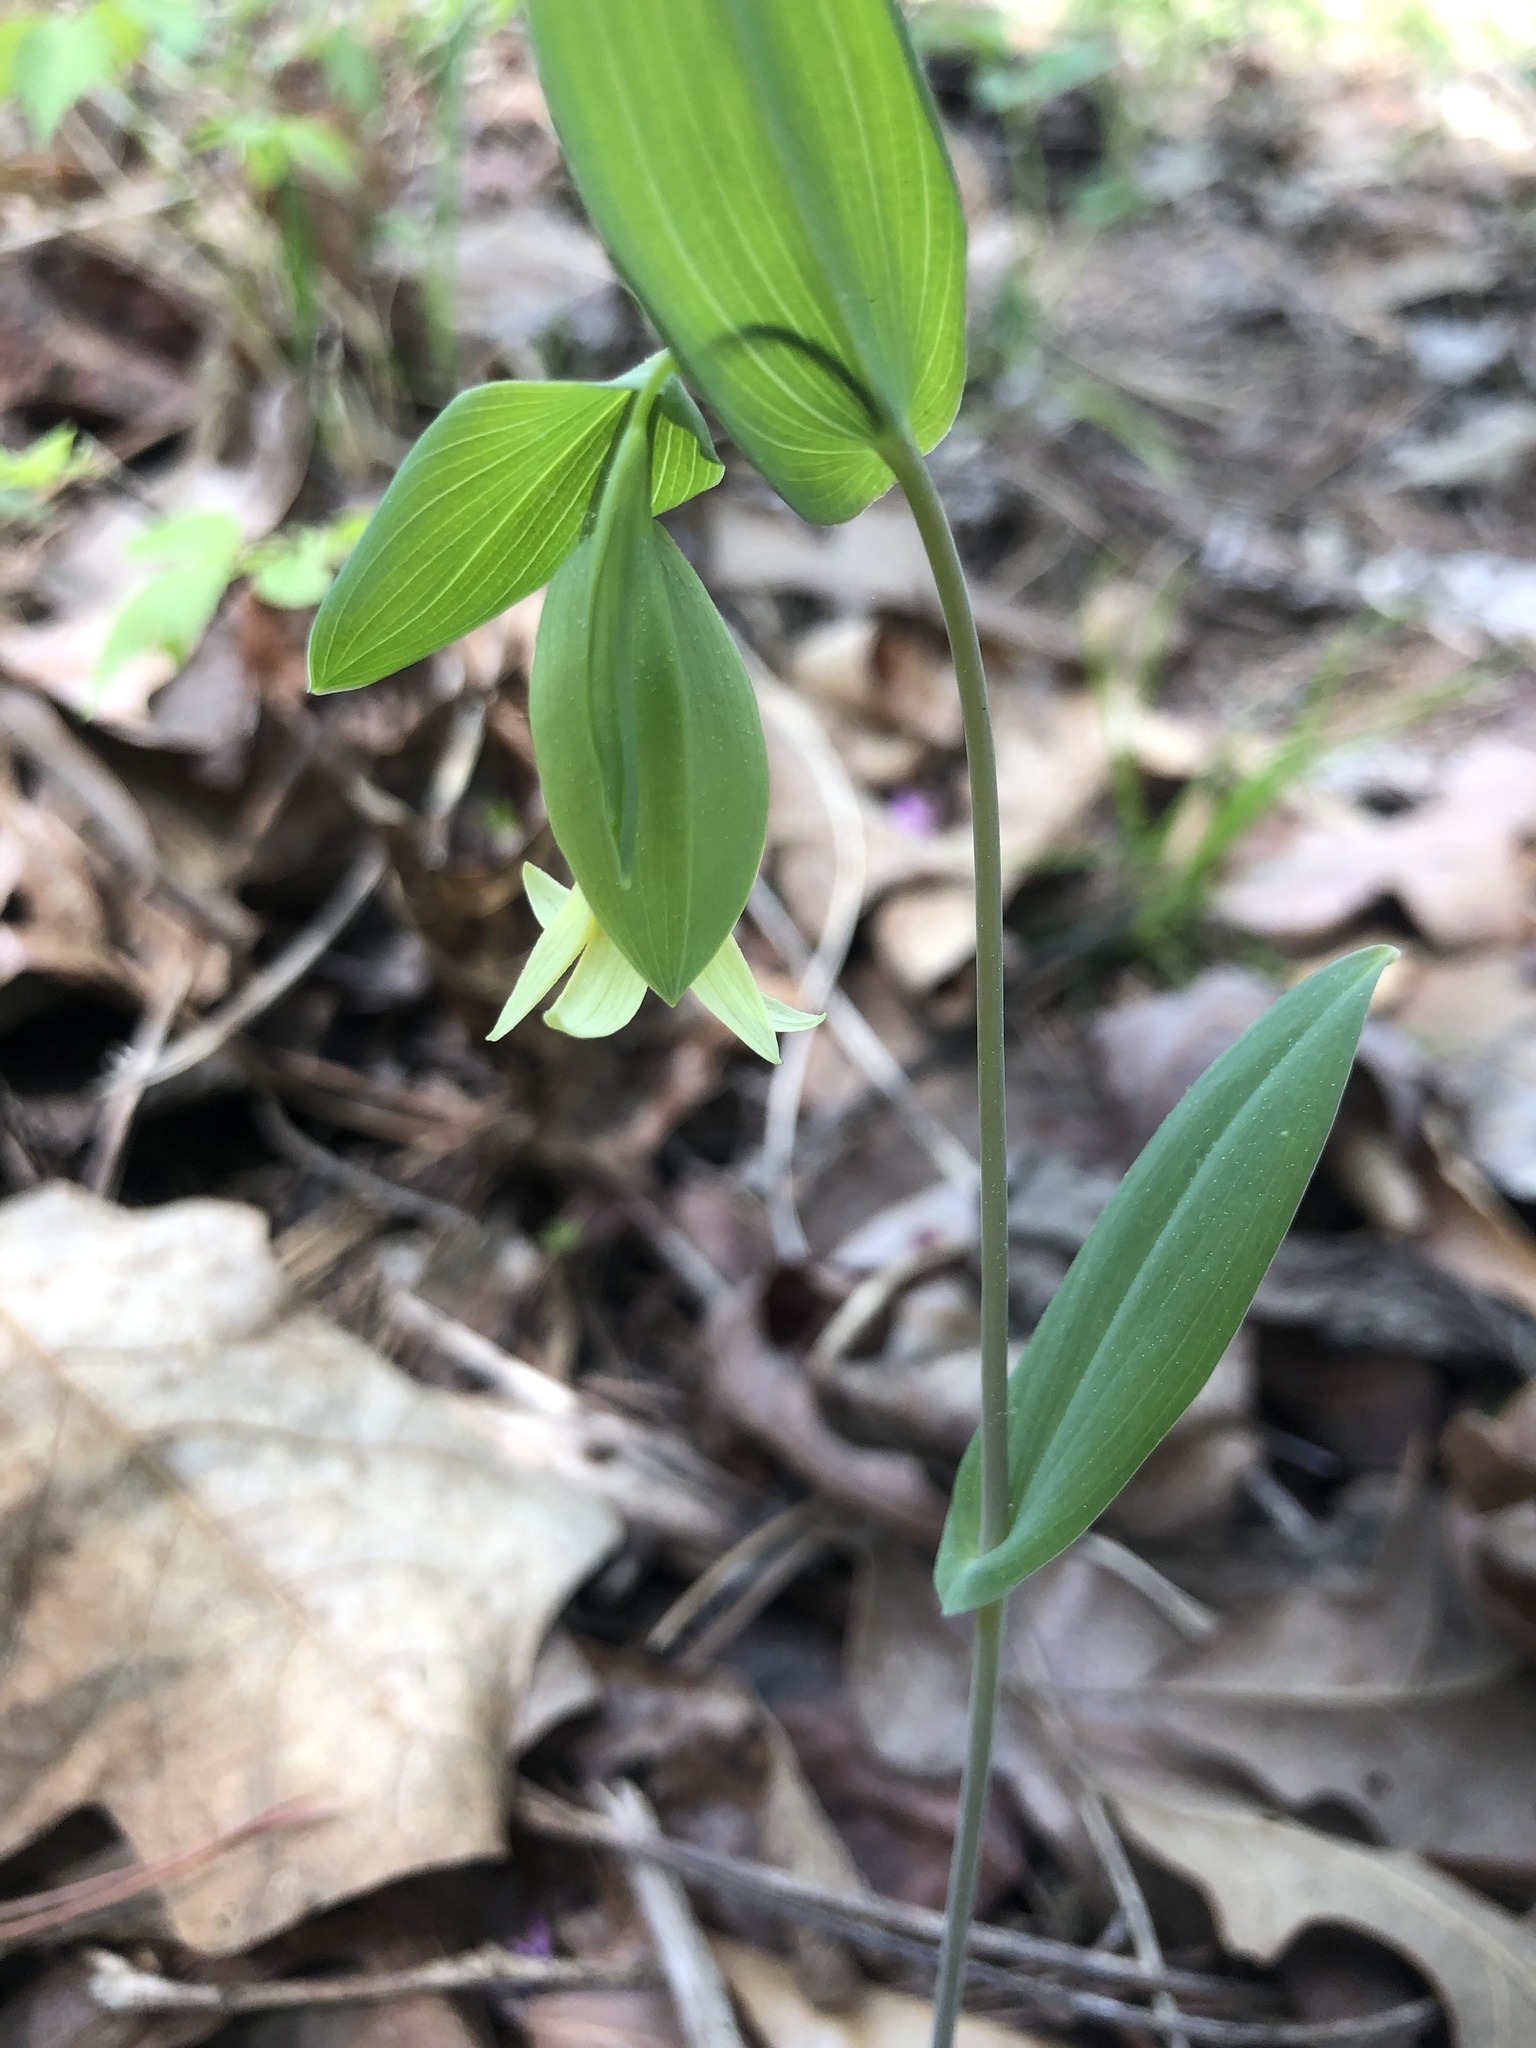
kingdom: Plantae
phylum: Tracheophyta
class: Liliopsida
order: Liliales
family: Colchicaceae
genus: Uvularia
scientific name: Uvularia perfoliata
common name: Perfoliate bellwort
